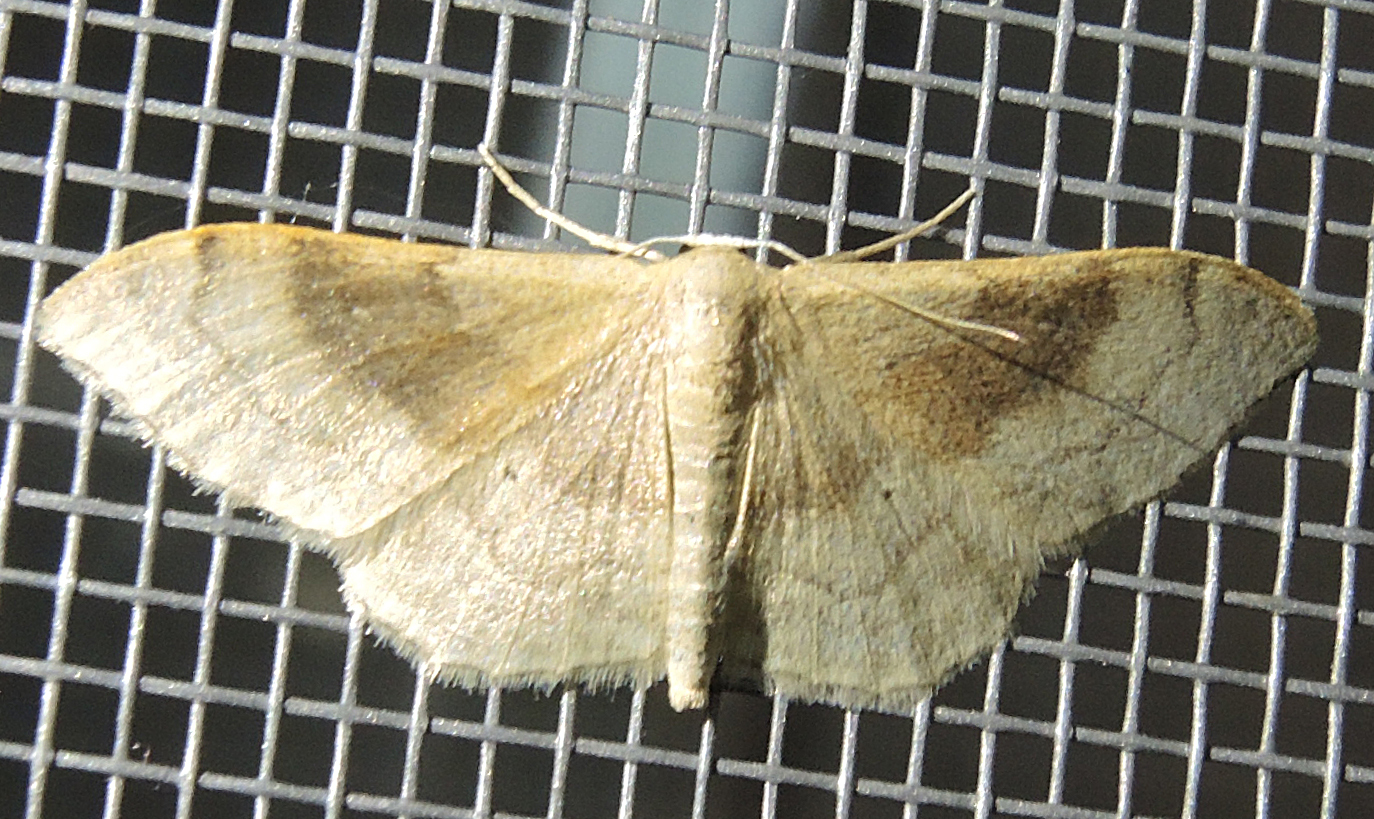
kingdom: Animalia
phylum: Arthropoda
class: Insecta
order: Lepidoptera
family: Geometridae
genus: Idaea
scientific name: Idaea degeneraria
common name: Portland ribbon wave
